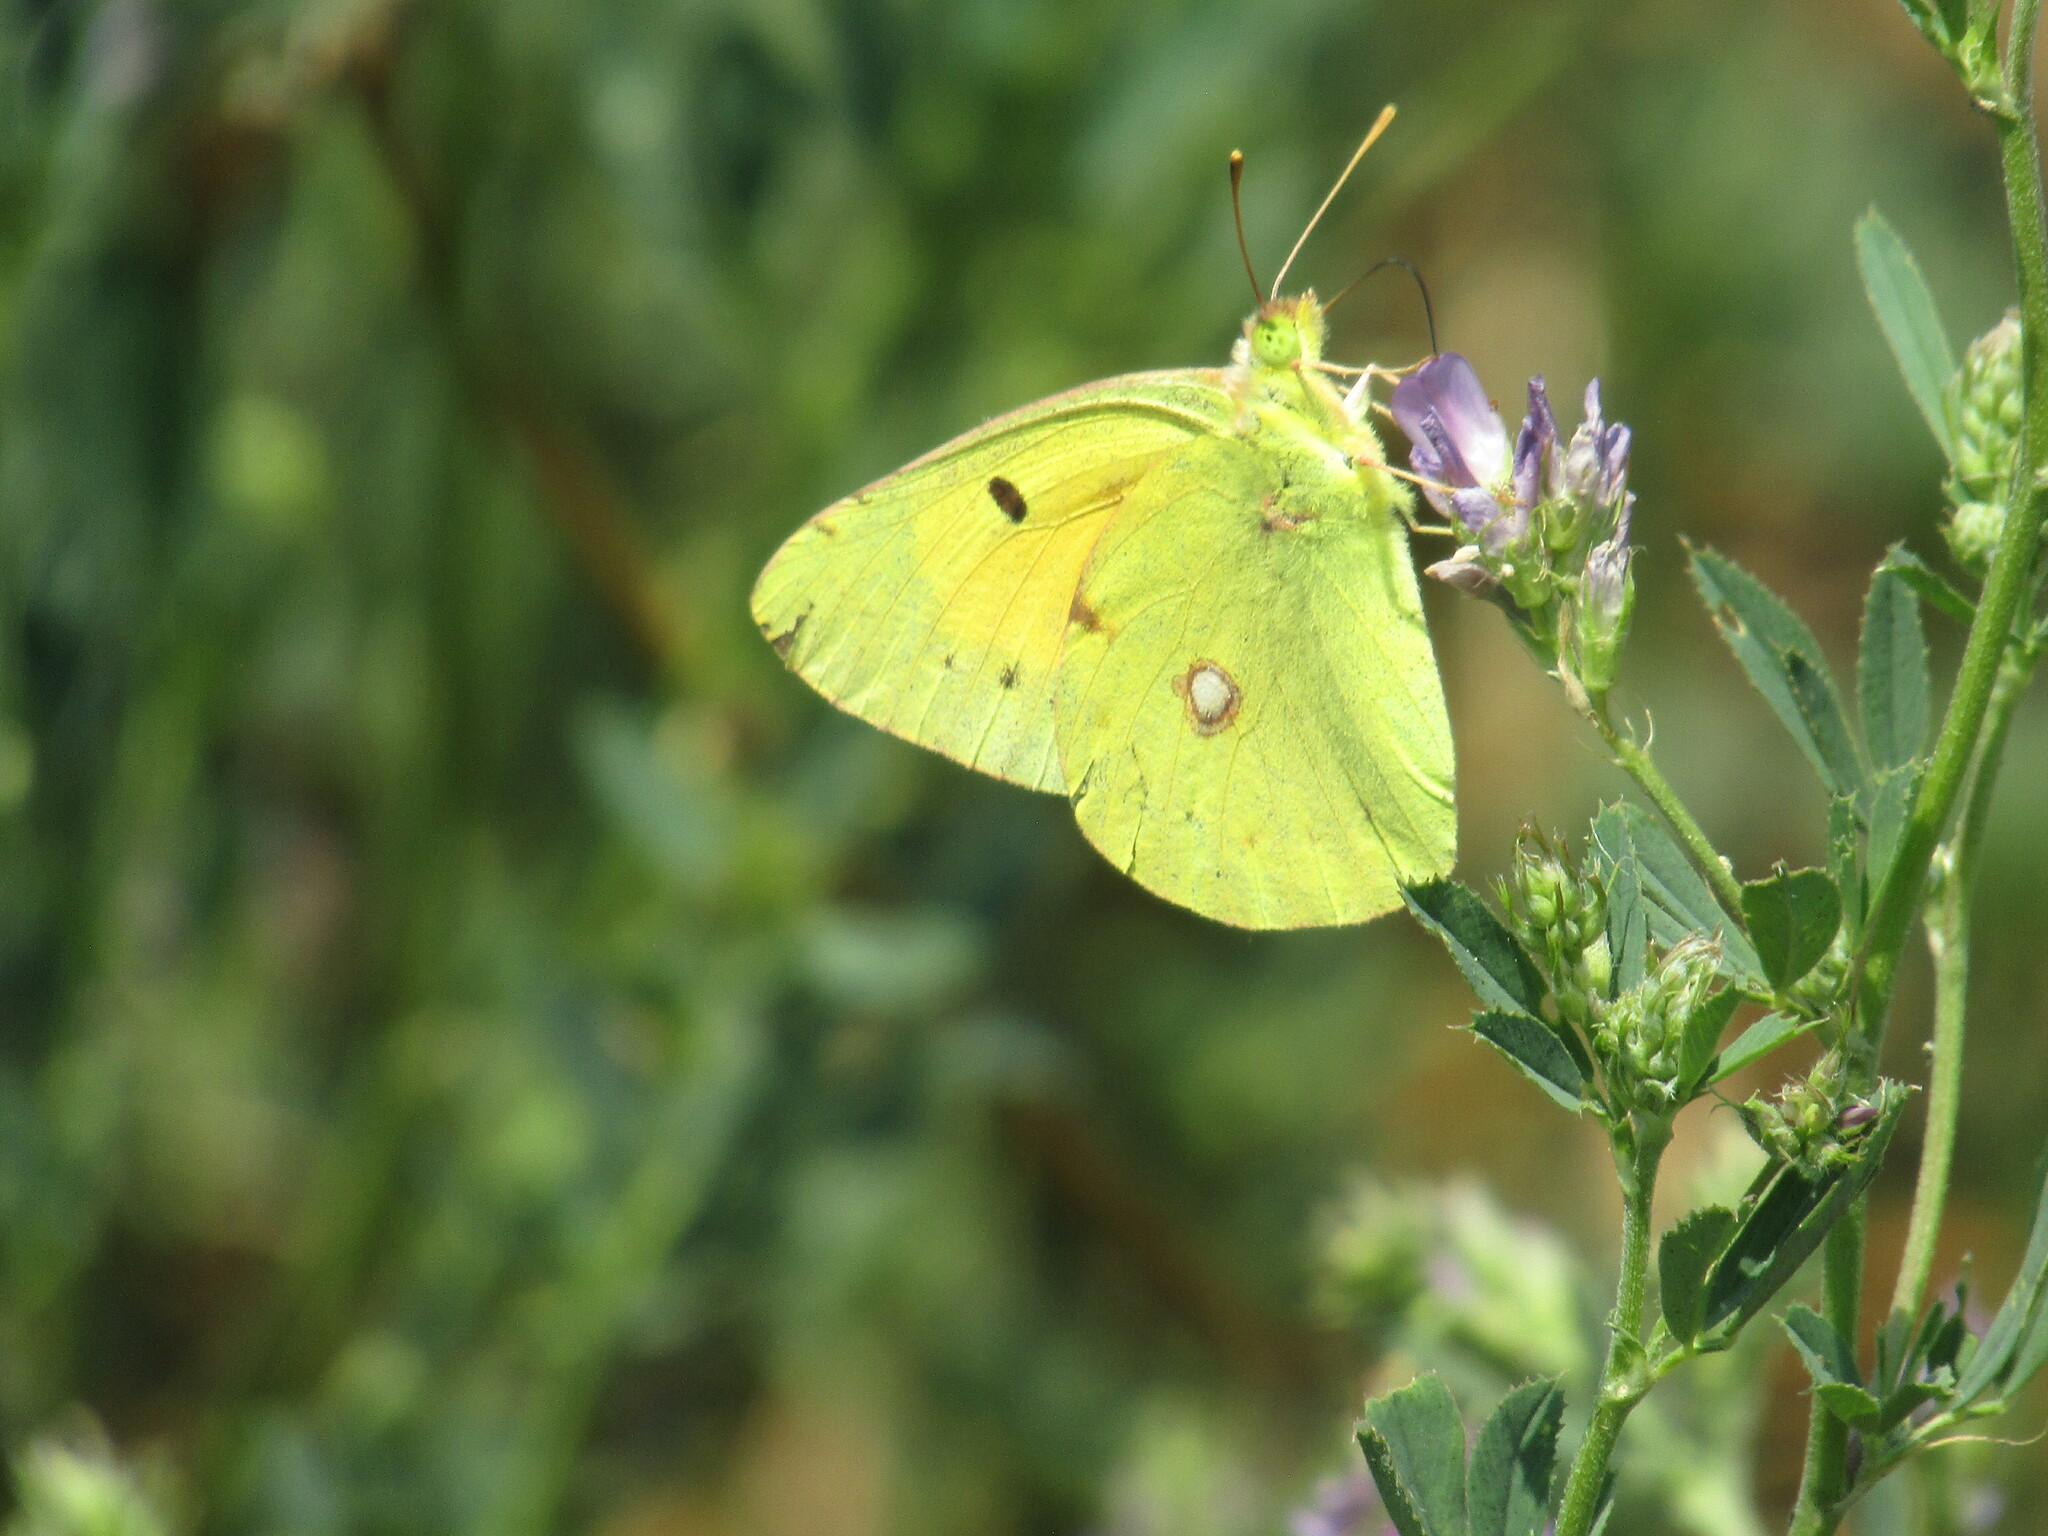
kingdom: Animalia
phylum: Arthropoda
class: Insecta
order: Lepidoptera
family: Pieridae
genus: Colias
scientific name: Colias croceus
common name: Clouded yellow
